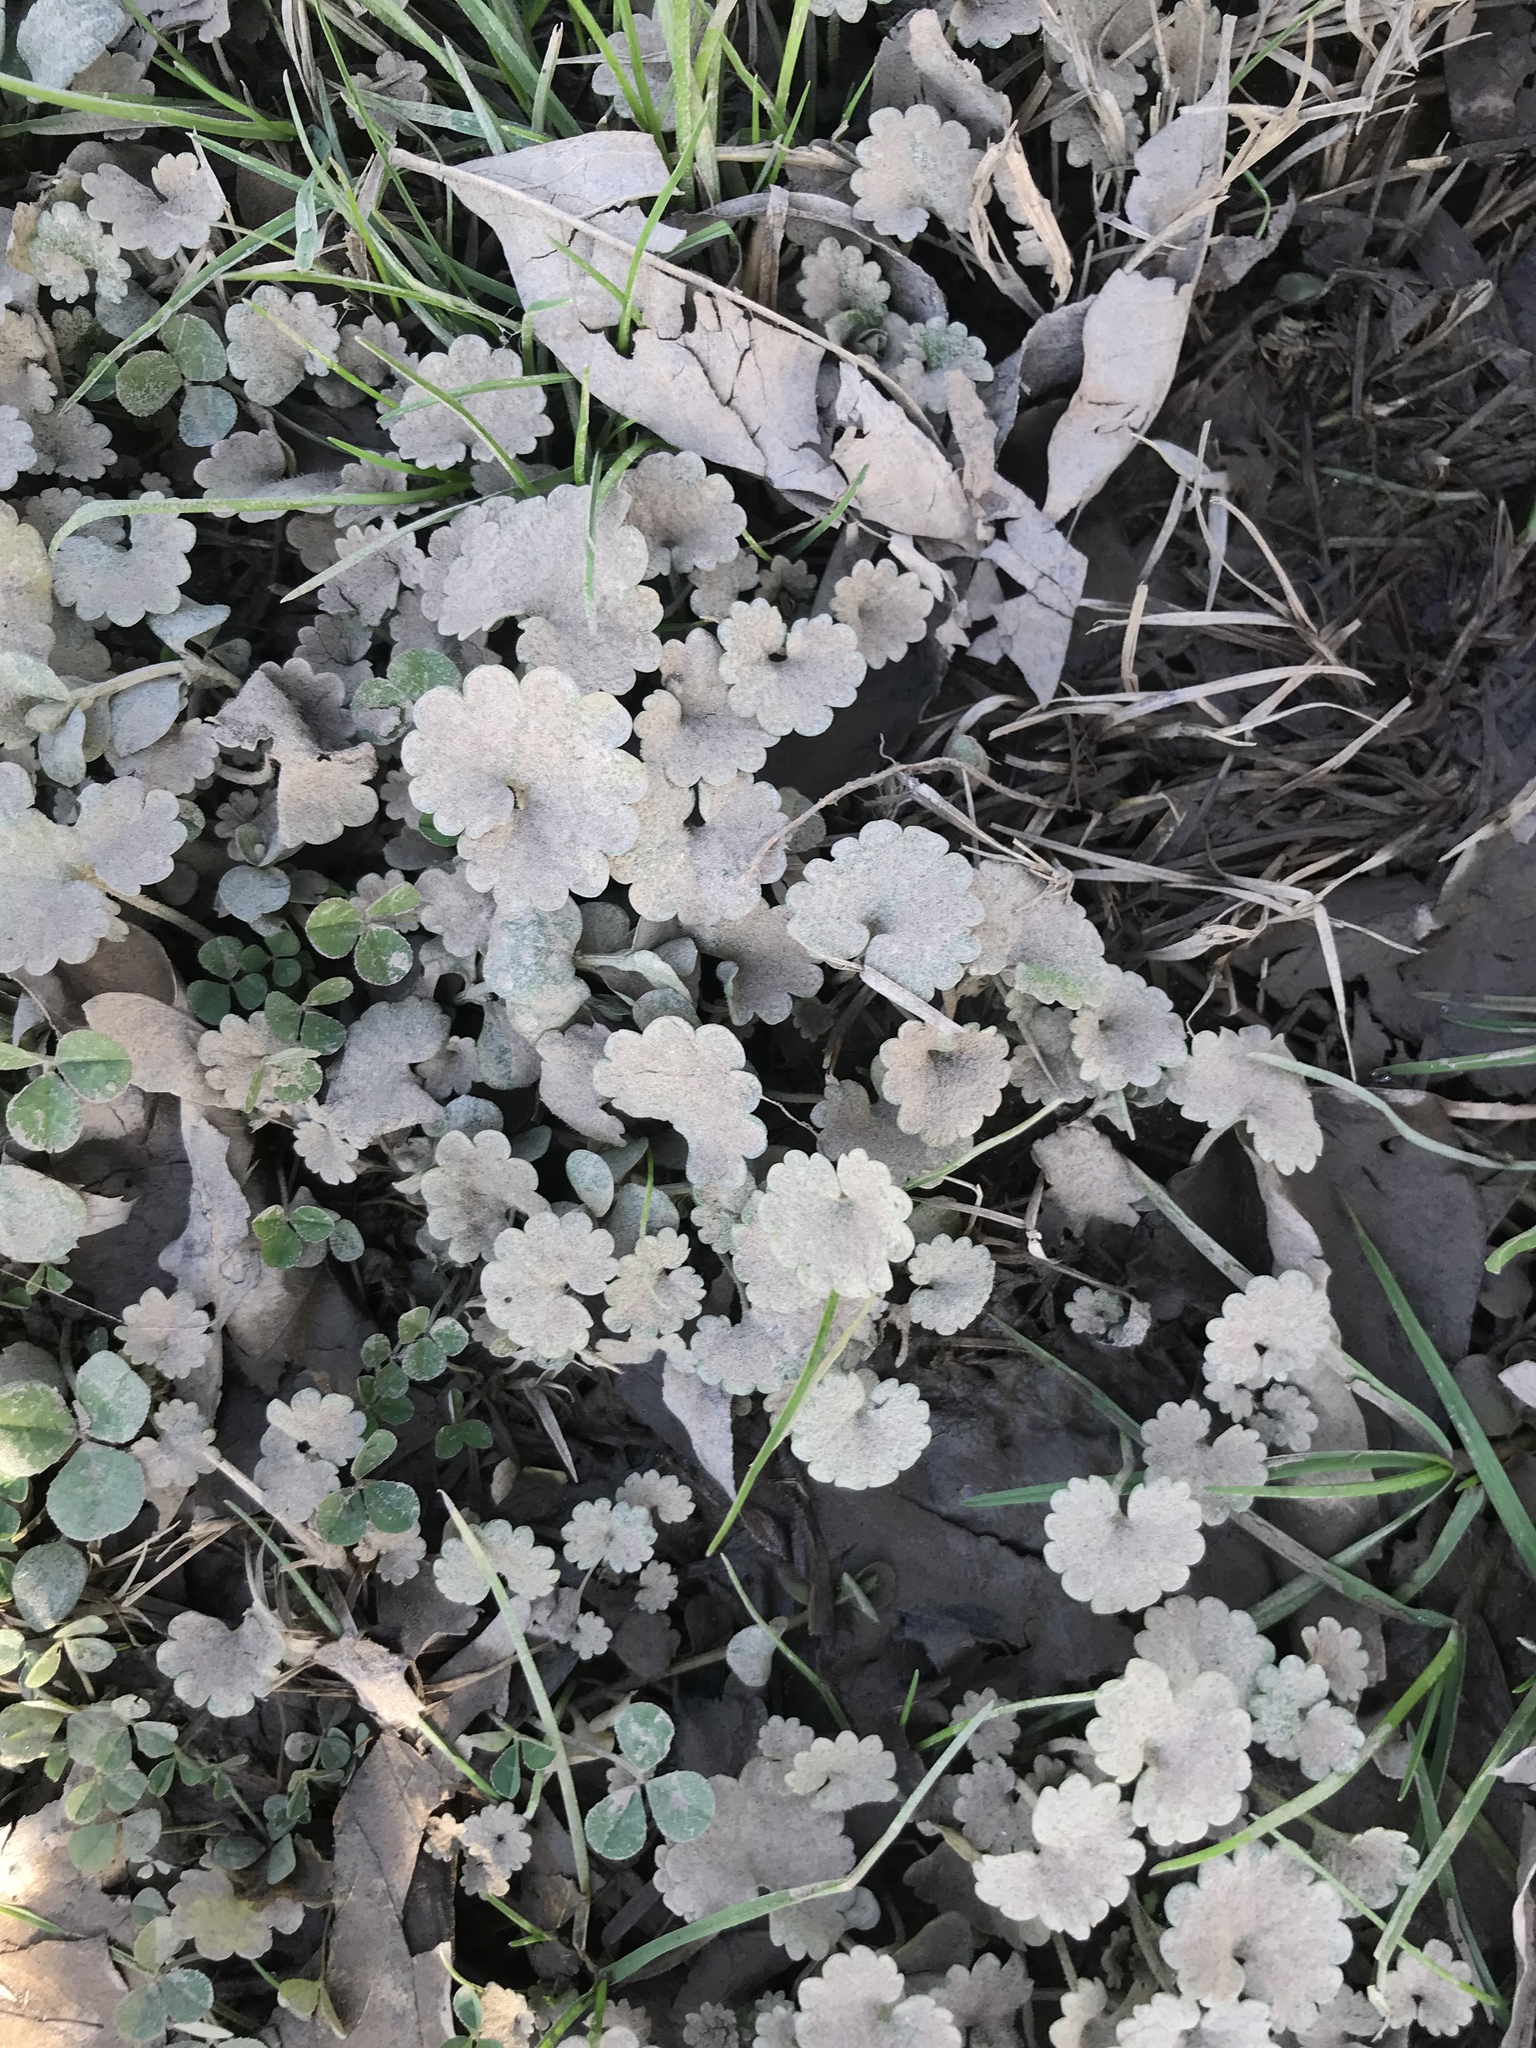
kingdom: Plantae
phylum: Tracheophyta
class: Magnoliopsida
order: Lamiales
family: Lamiaceae
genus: Glechoma
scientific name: Glechoma hederacea
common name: Ground ivy
